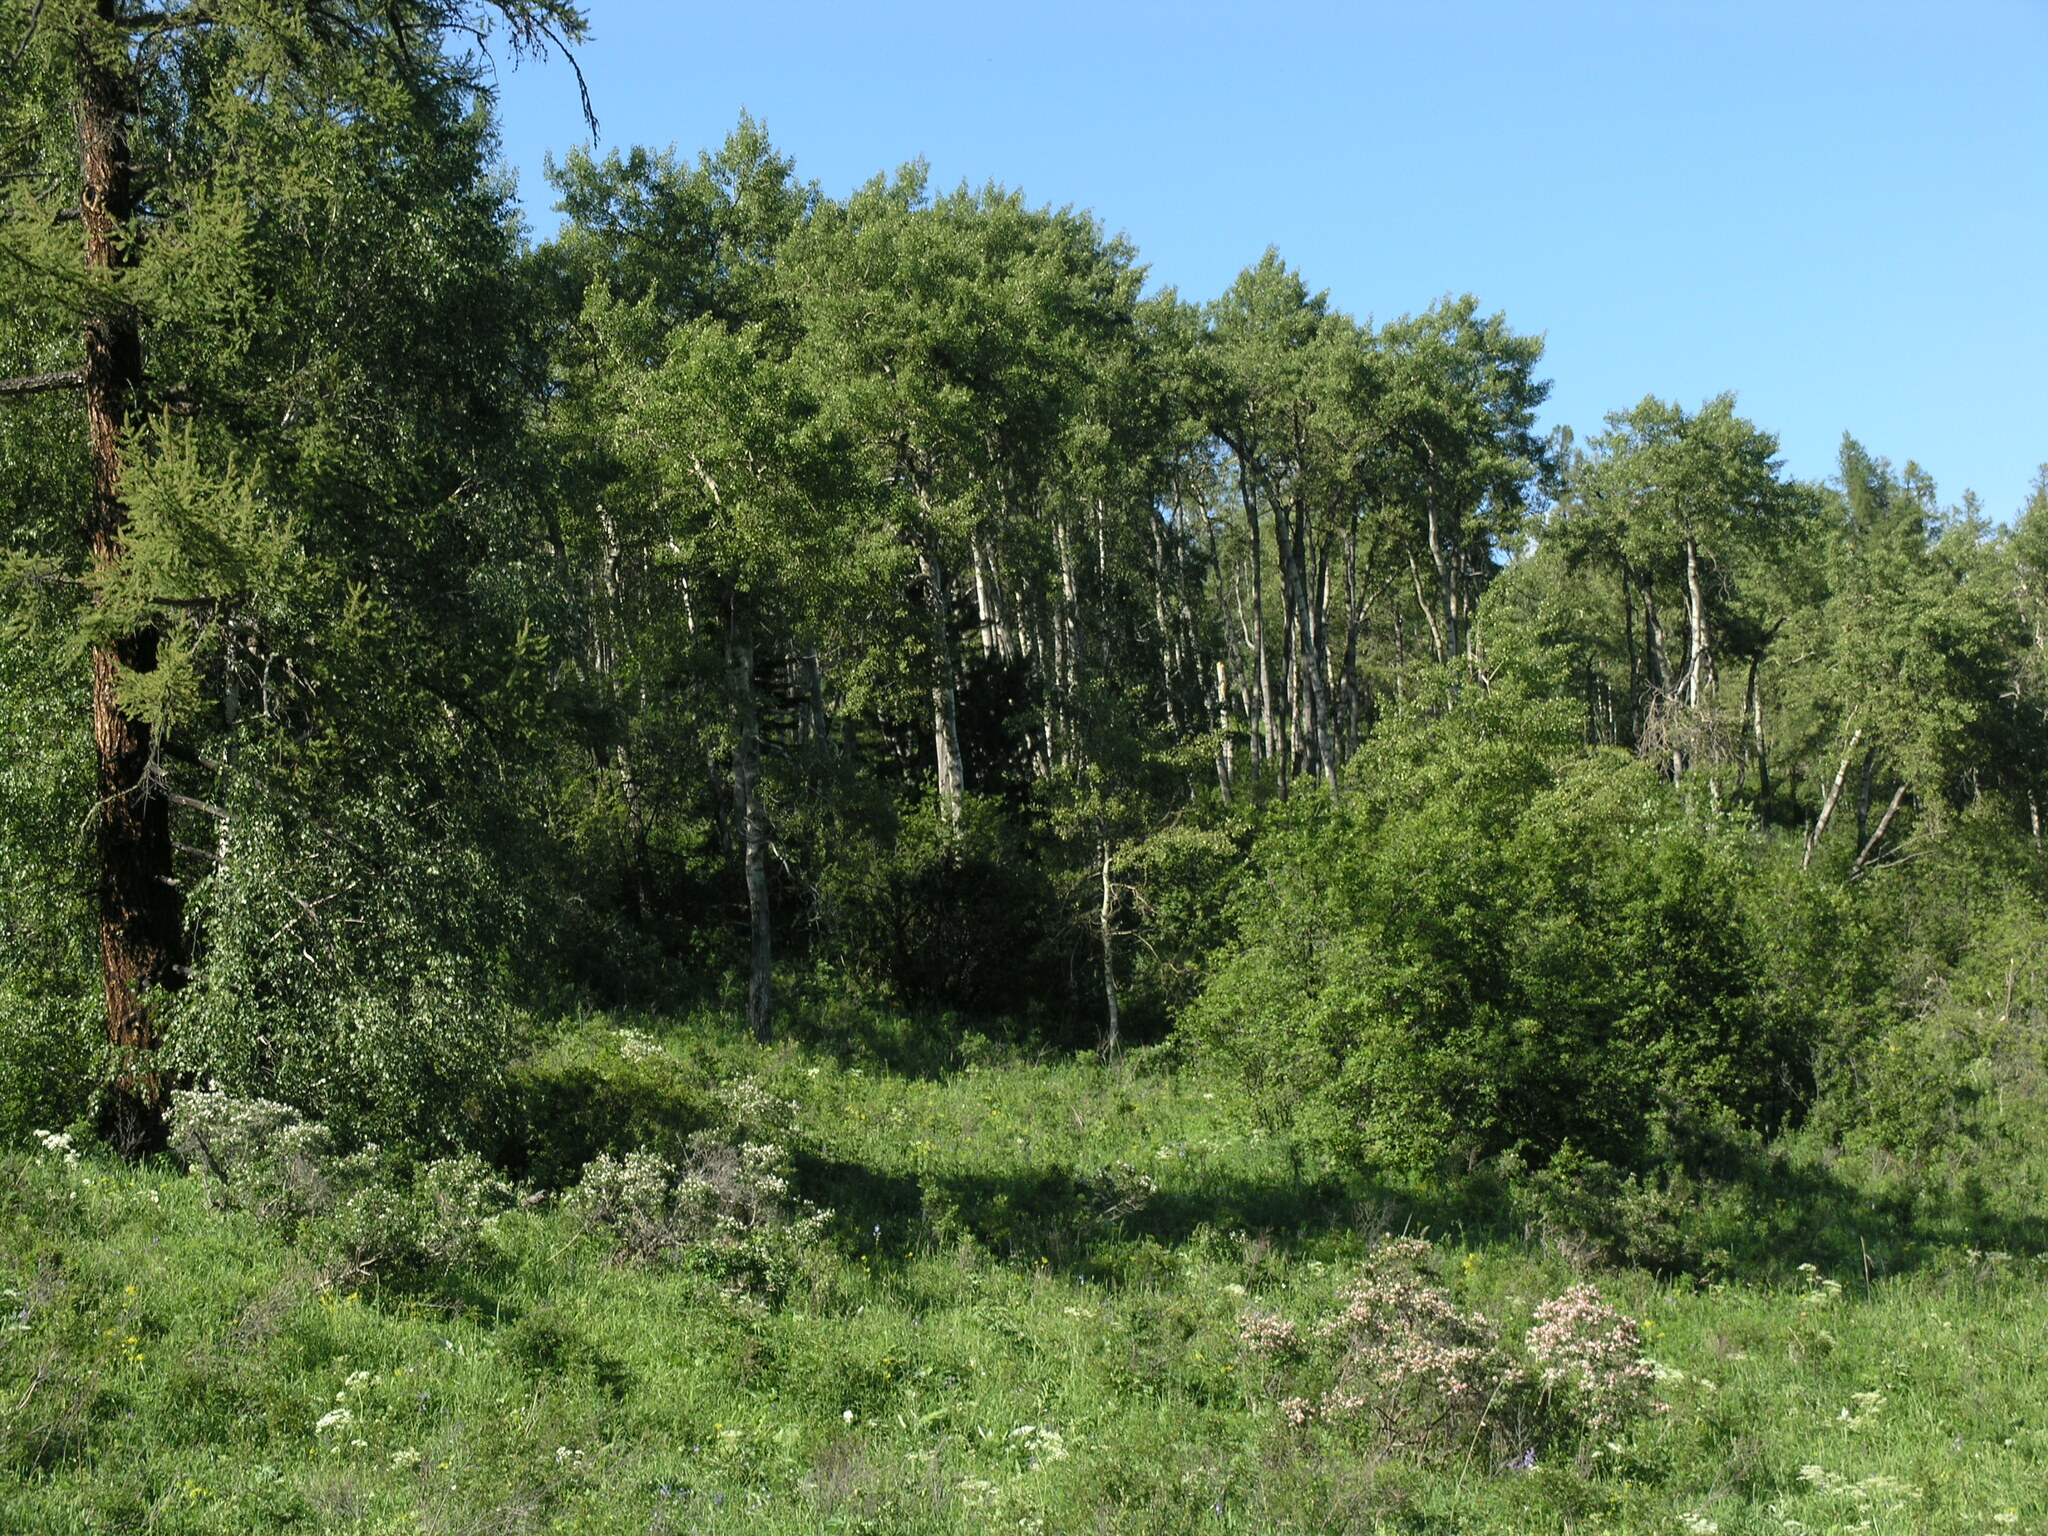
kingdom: Plantae
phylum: Tracheophyta
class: Magnoliopsida
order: Dipsacales
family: Caprifoliaceae
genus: Lonicera
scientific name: Lonicera tatarica
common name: Tatarian honeysuckle
